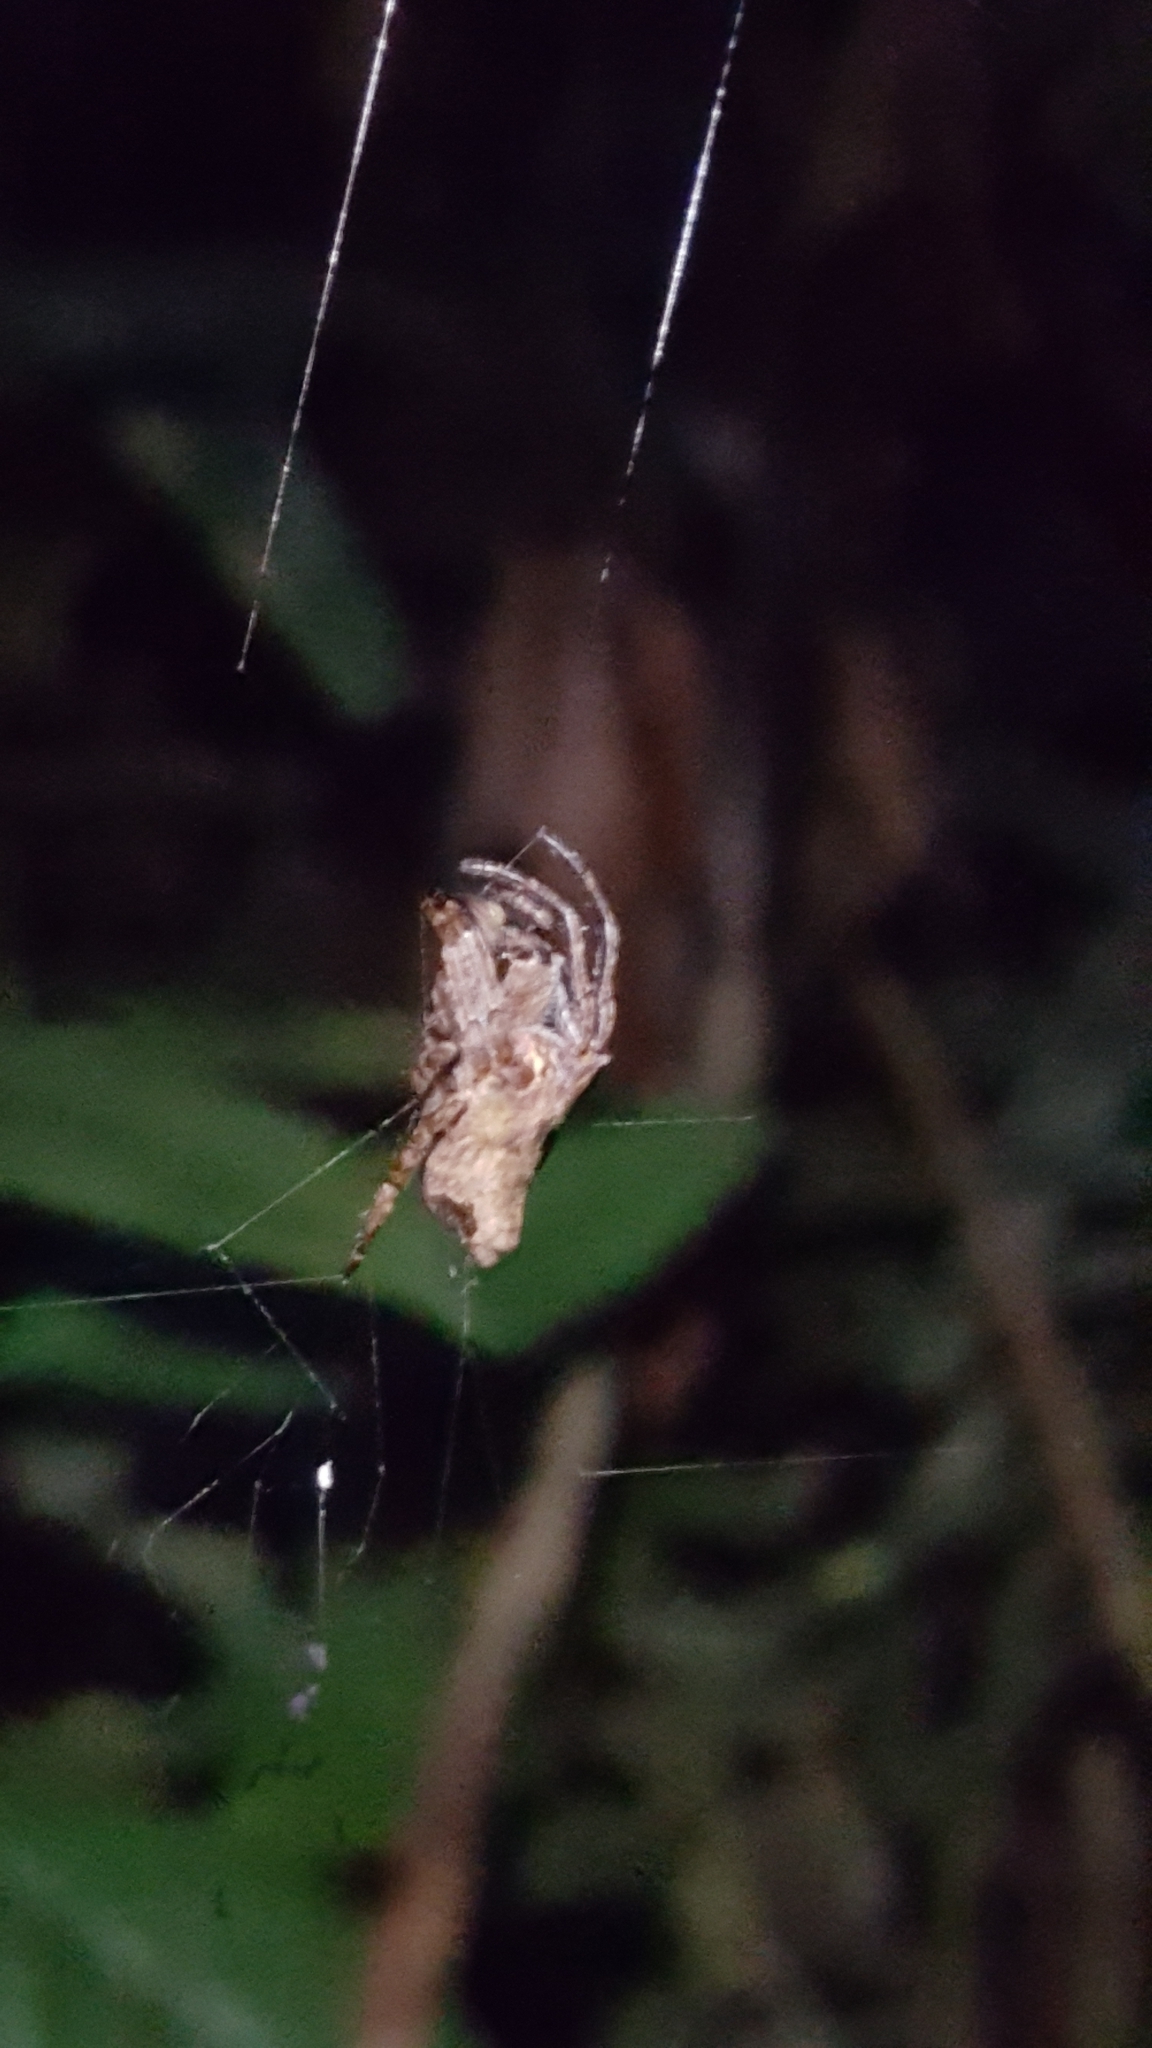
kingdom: Animalia
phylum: Arthropoda
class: Arachnida
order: Araneae
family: Araneidae
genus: Parawixia
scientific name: Parawixia dehaani
